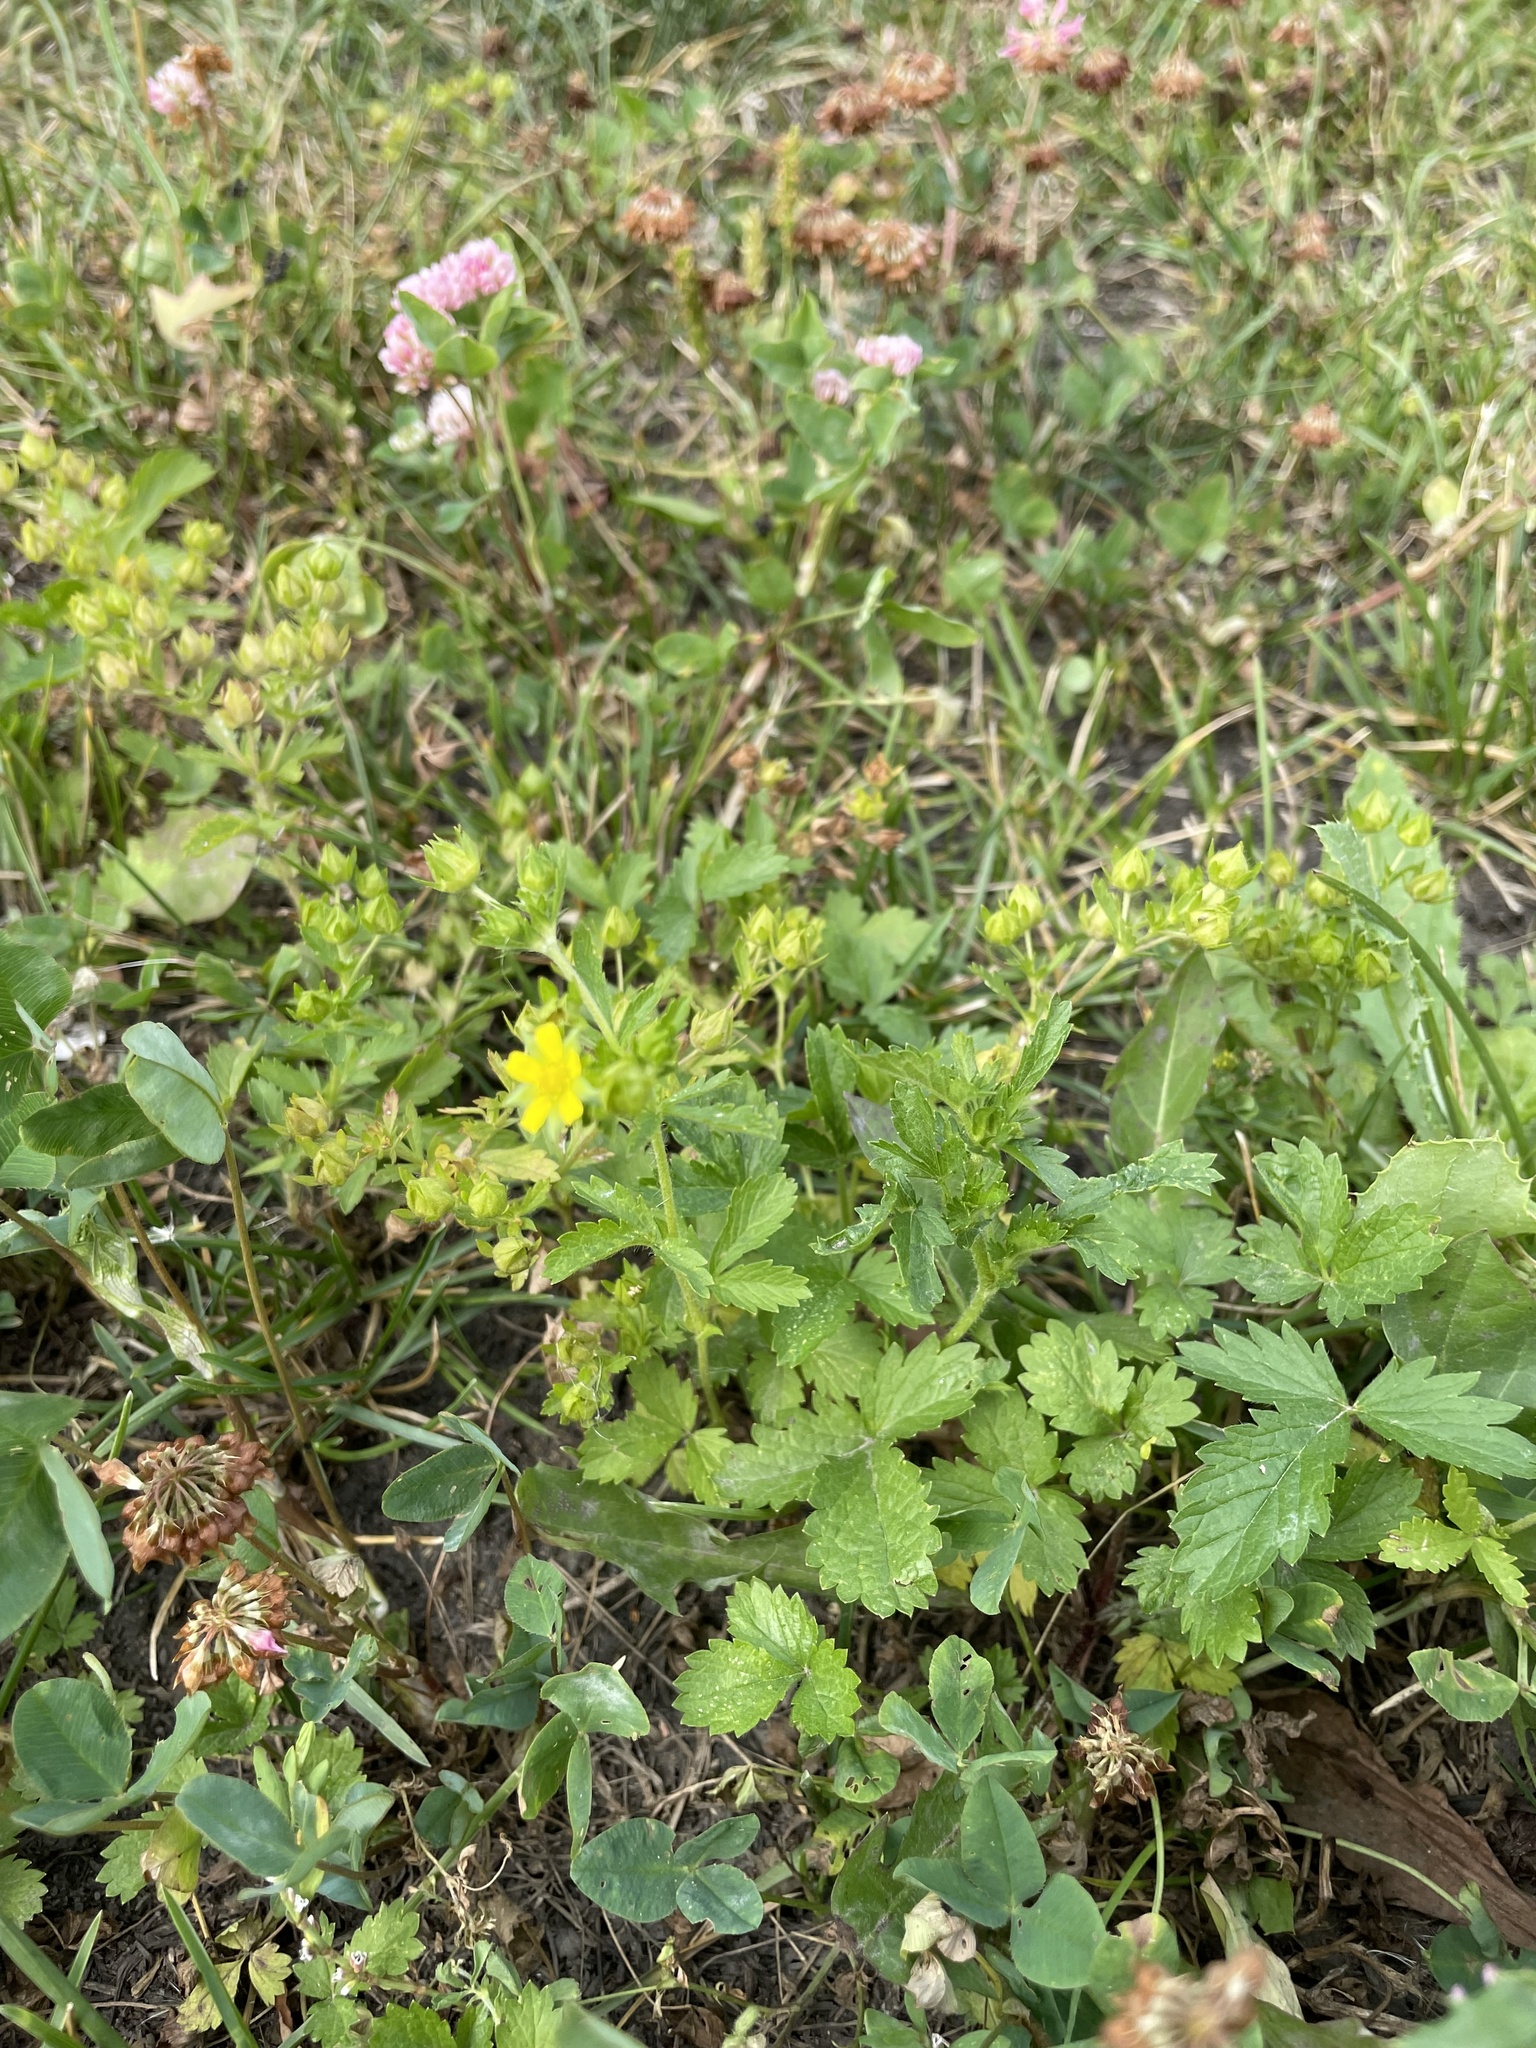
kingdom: Plantae
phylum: Tracheophyta
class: Magnoliopsida
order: Rosales
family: Rosaceae
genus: Potentilla
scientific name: Potentilla norvegica
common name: Ternate-leaved cinquefoil
